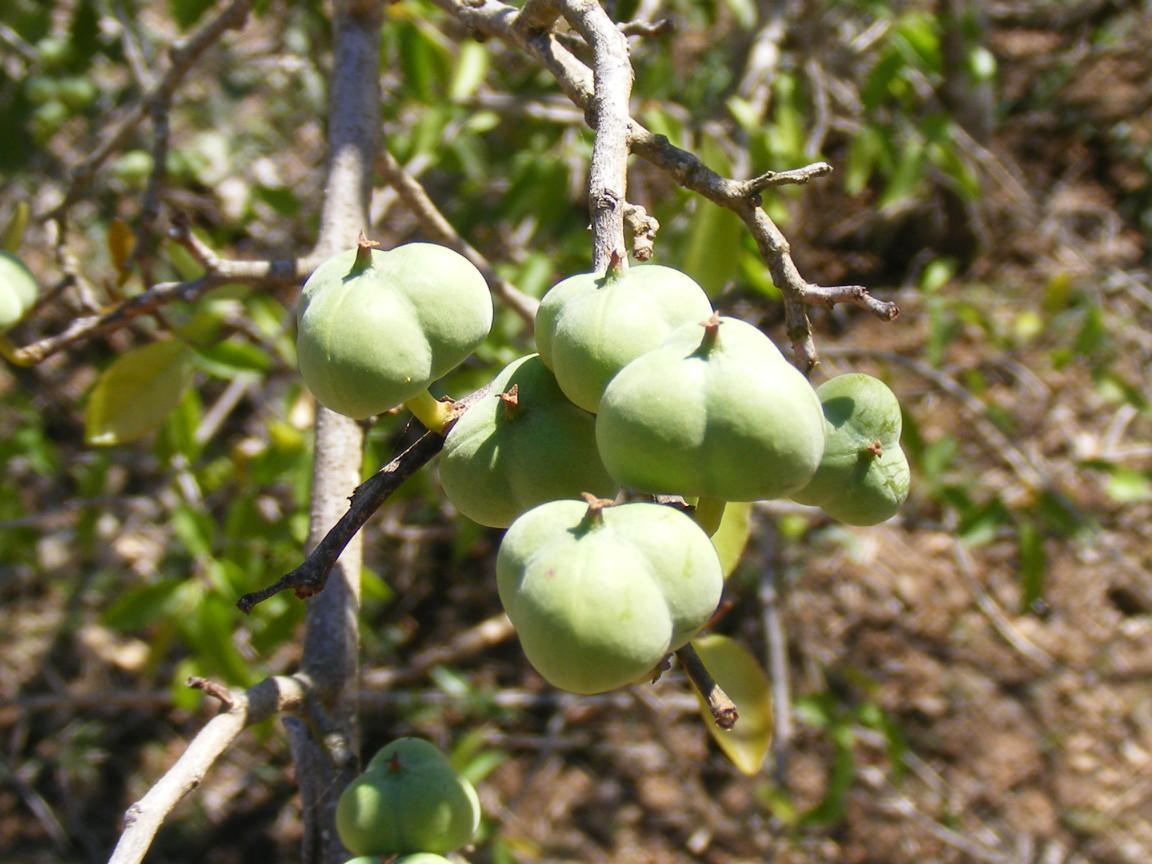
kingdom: Plantae
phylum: Tracheophyta
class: Magnoliopsida
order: Malpighiales
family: Euphorbiaceae
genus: Spirostachys
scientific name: Spirostachys africana
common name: Tamboti
